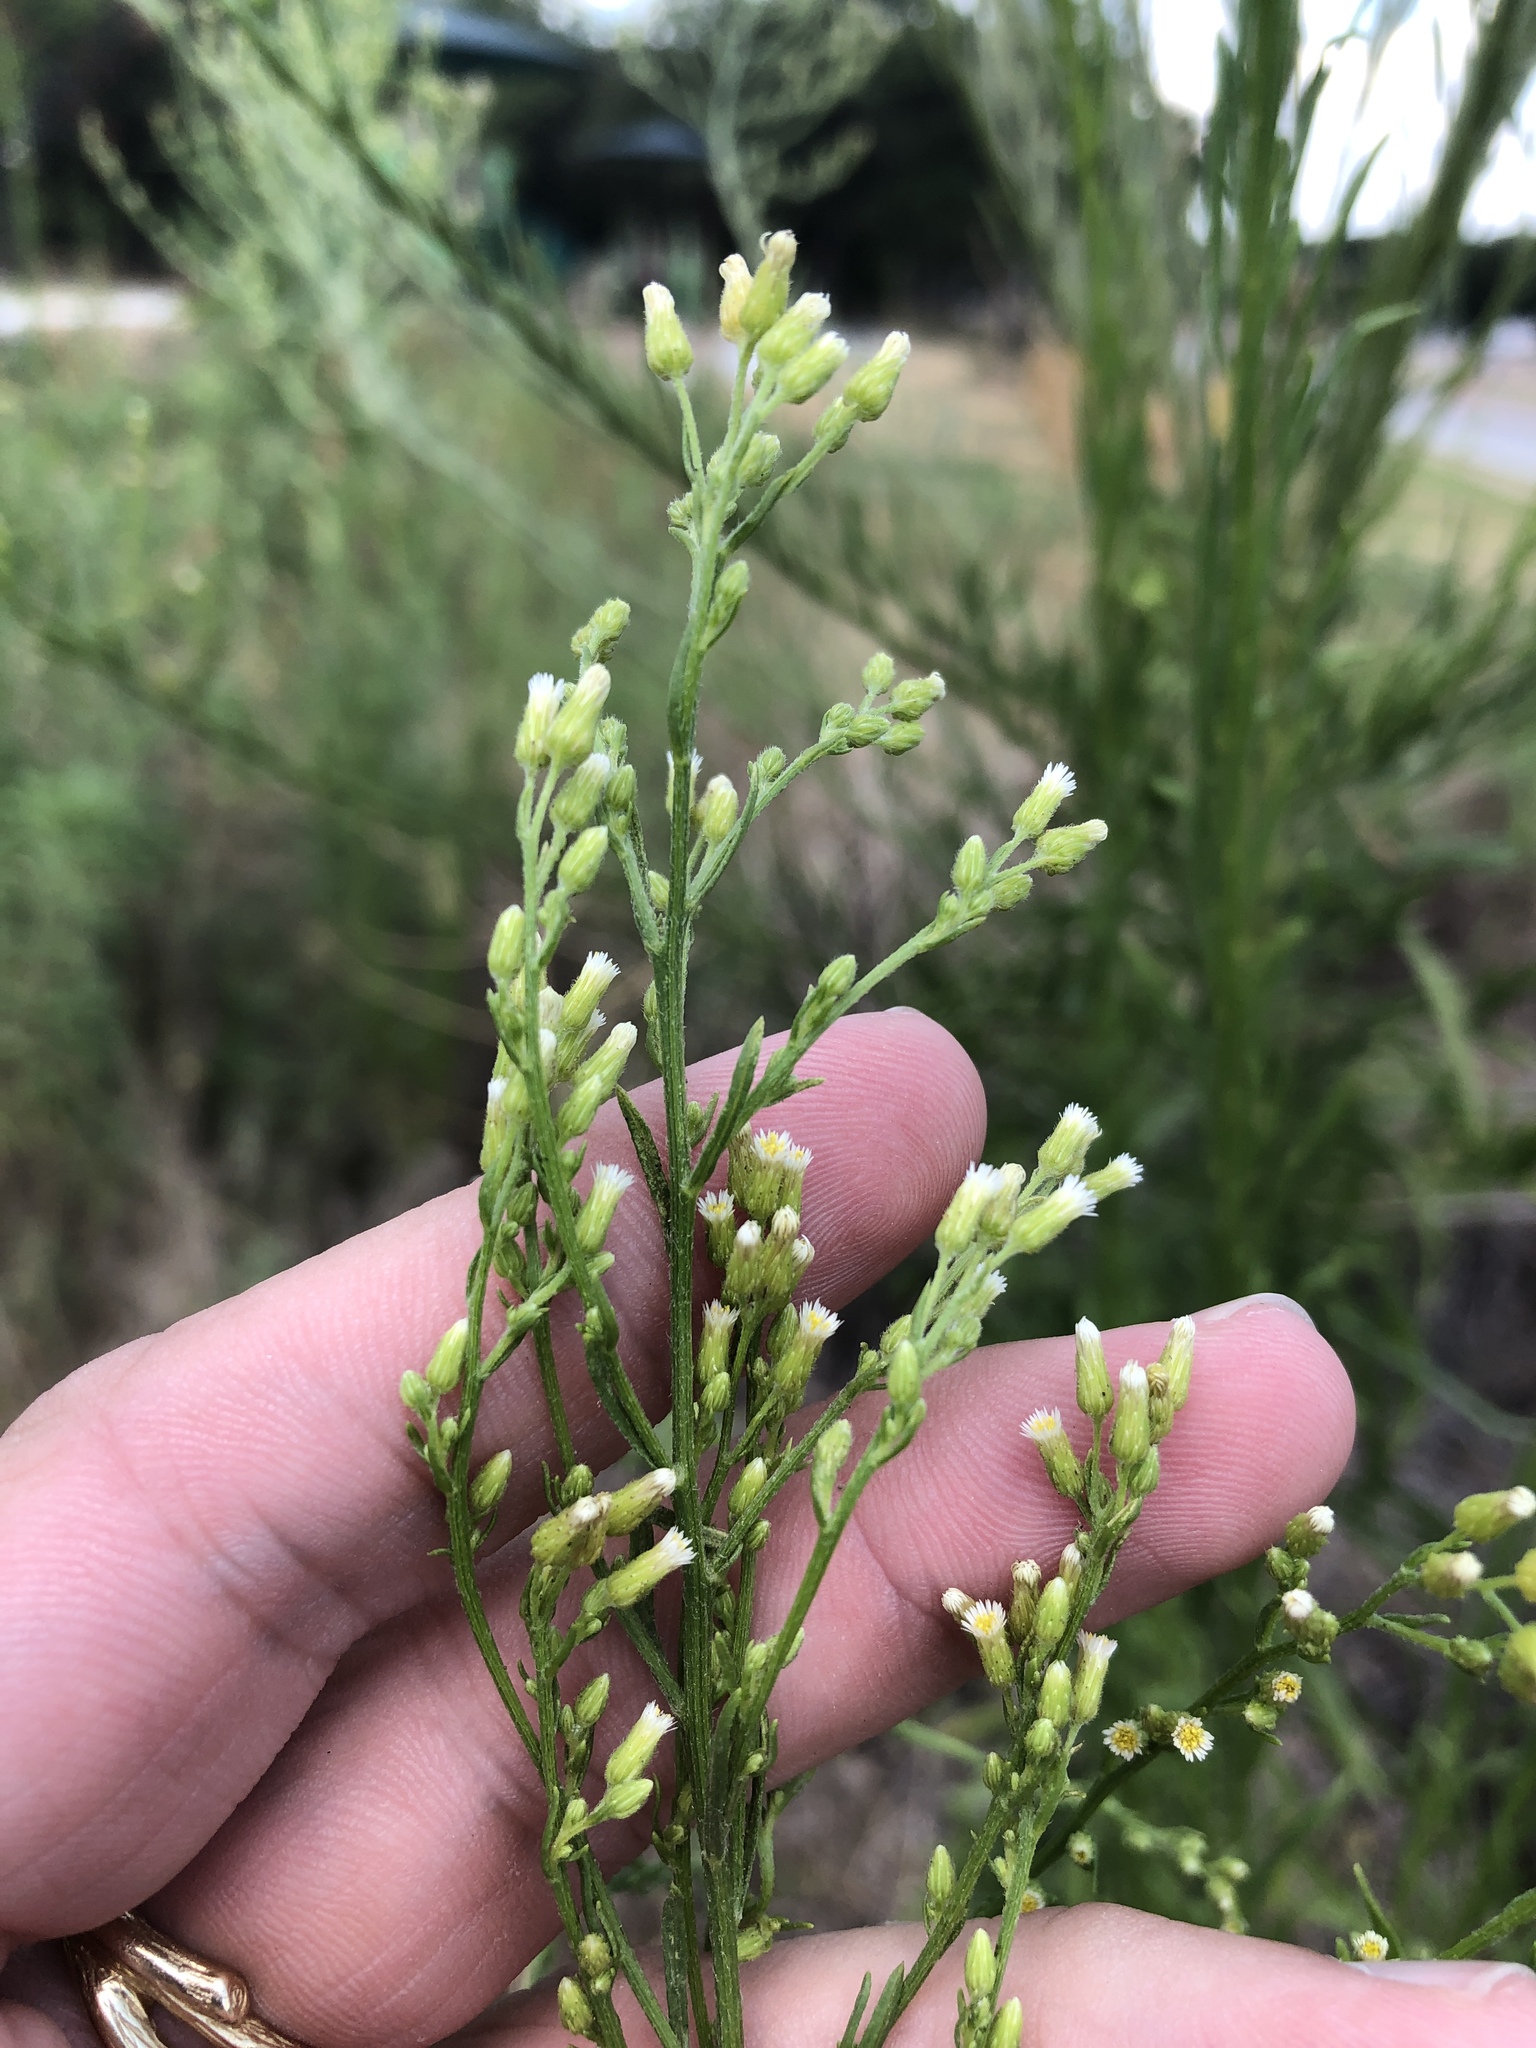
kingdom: Plantae
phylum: Tracheophyta
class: Magnoliopsida
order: Asterales
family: Asteraceae
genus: Erigeron
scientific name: Erigeron canadensis
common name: Canadian fleabane
